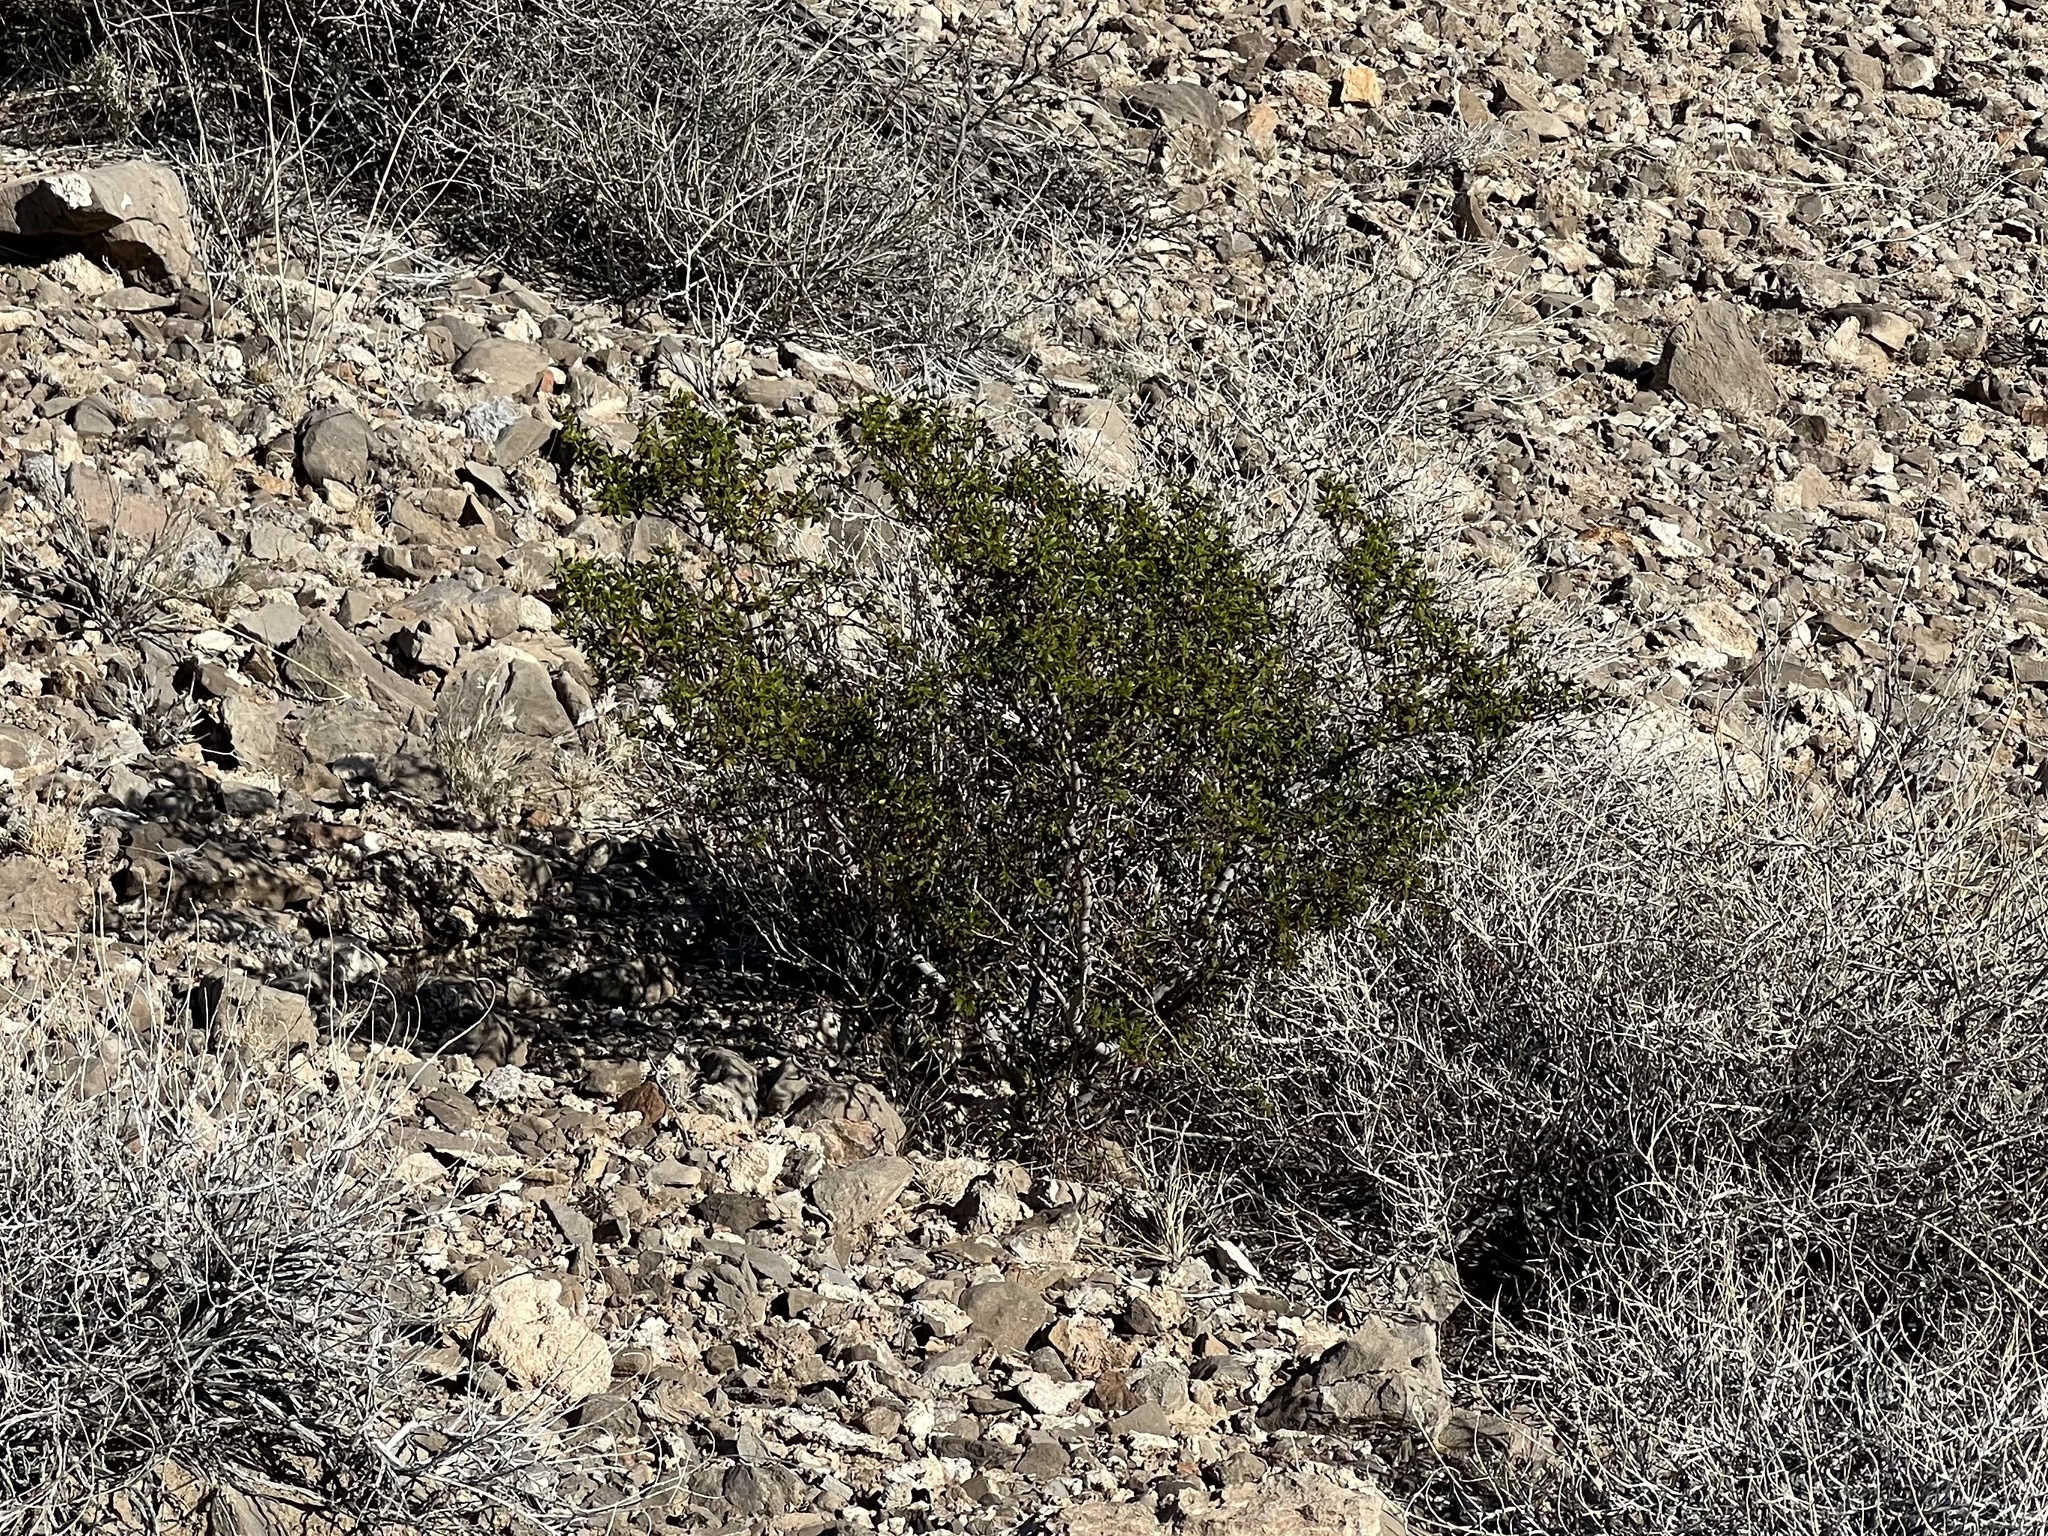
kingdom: Plantae
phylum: Tracheophyta
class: Magnoliopsida
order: Zygophyllales
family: Zygophyllaceae
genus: Larrea
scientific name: Larrea tridentata
